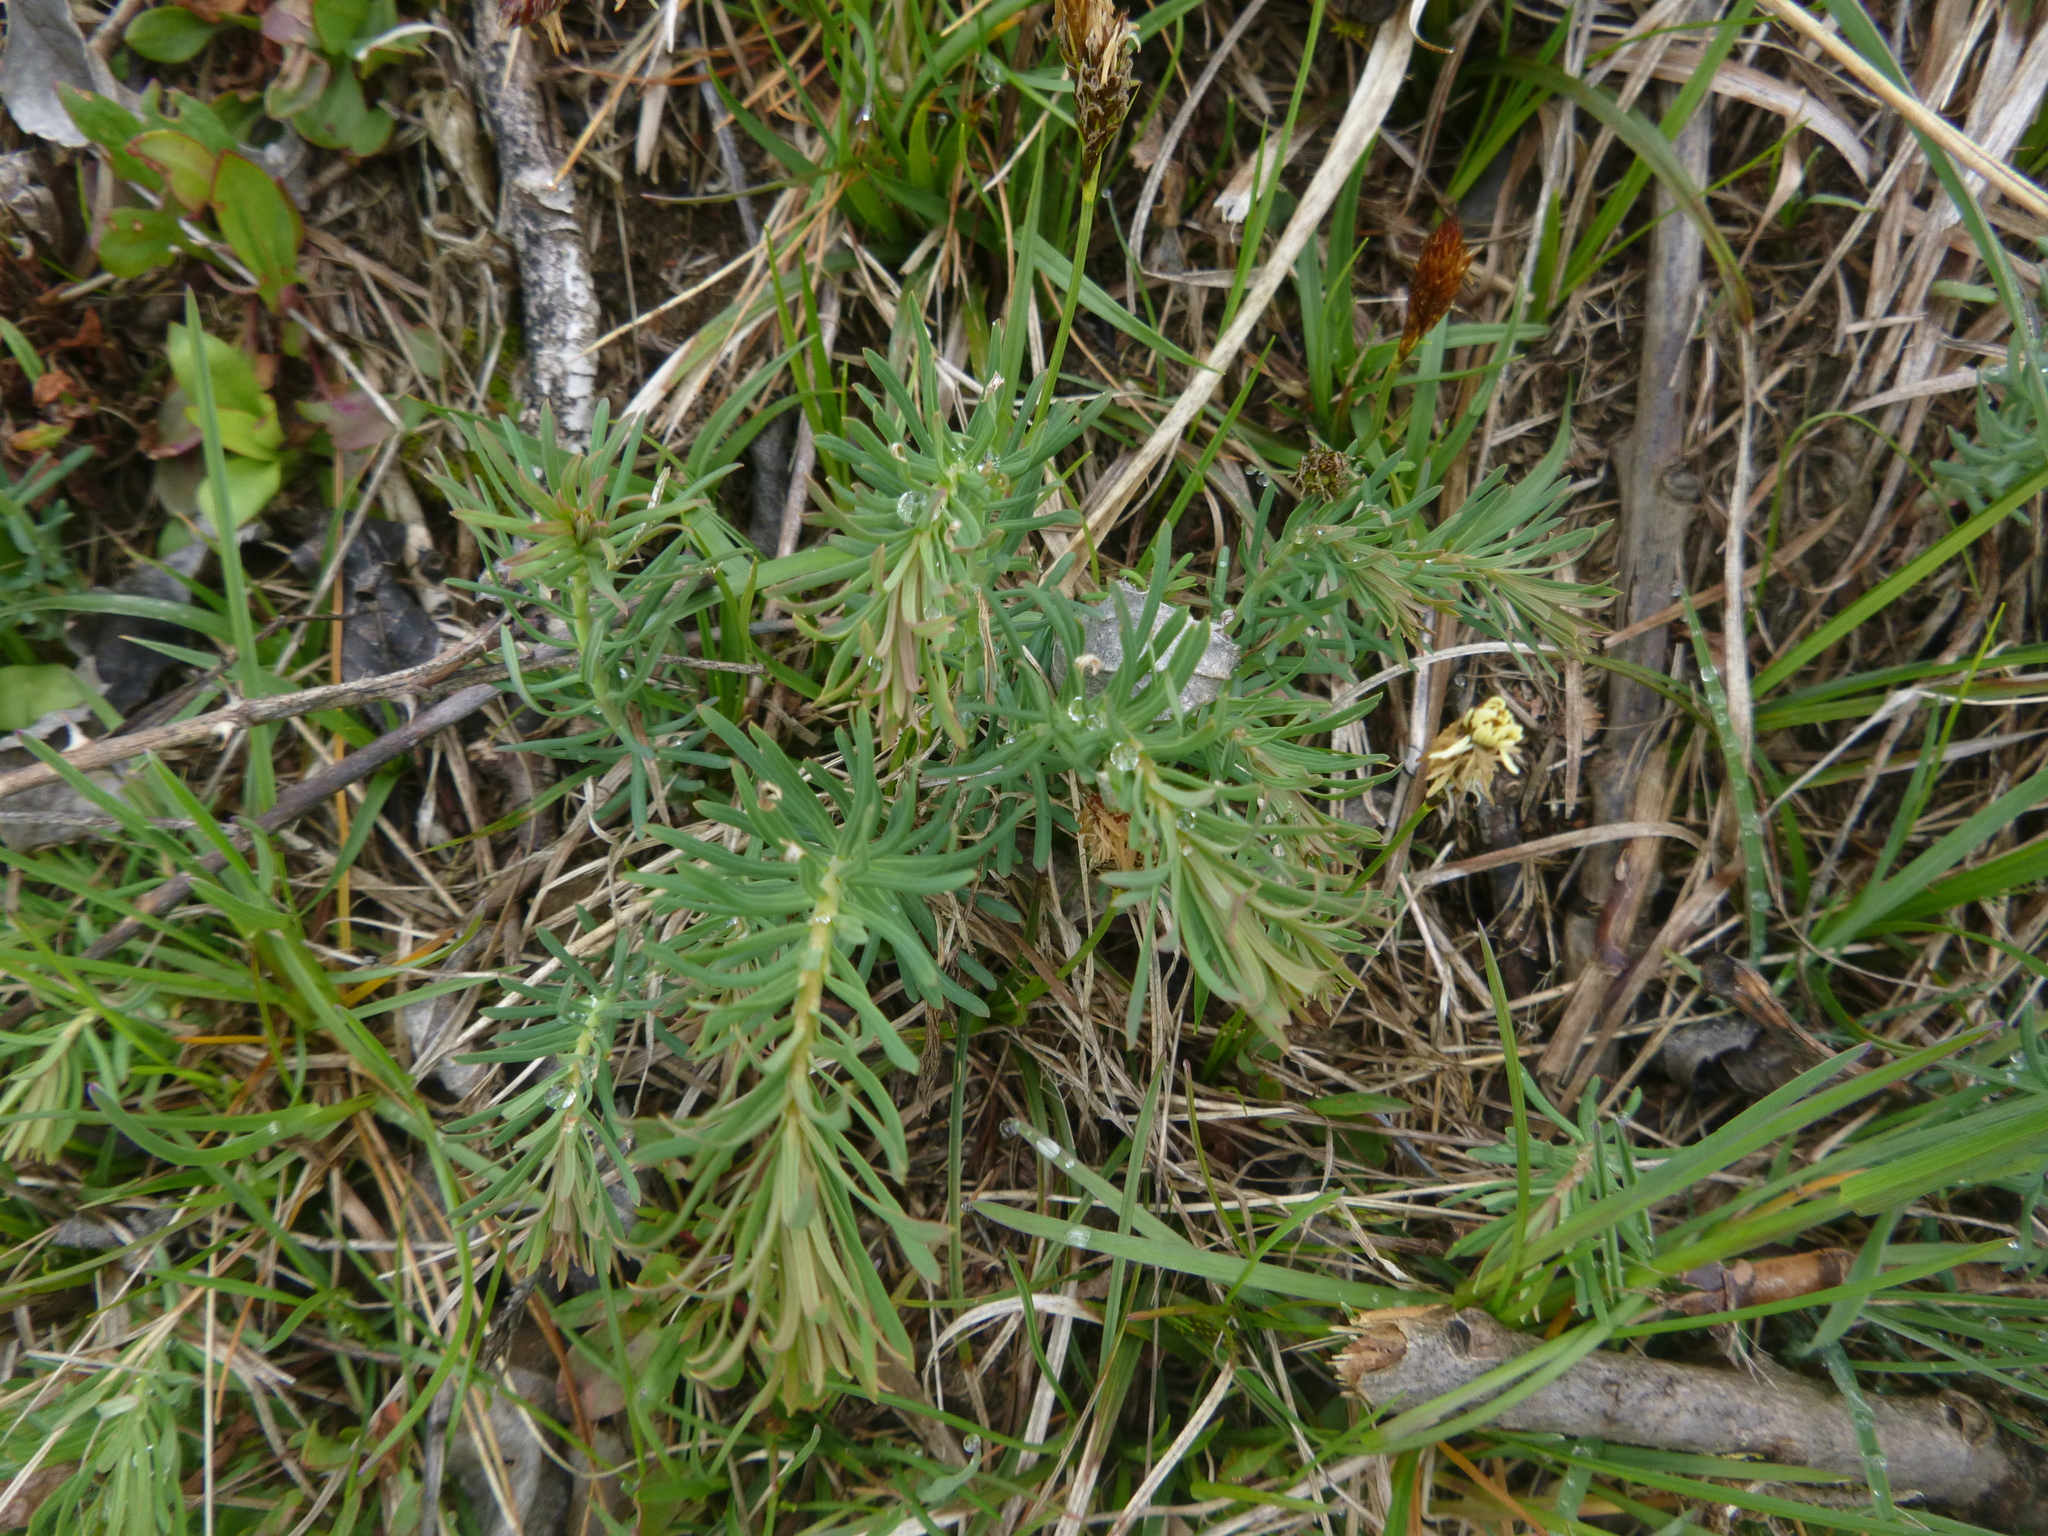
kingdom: Plantae
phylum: Tracheophyta
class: Magnoliopsida
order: Malpighiales
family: Euphorbiaceae
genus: Euphorbia
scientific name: Euphorbia cyparissias
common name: Cypress spurge
